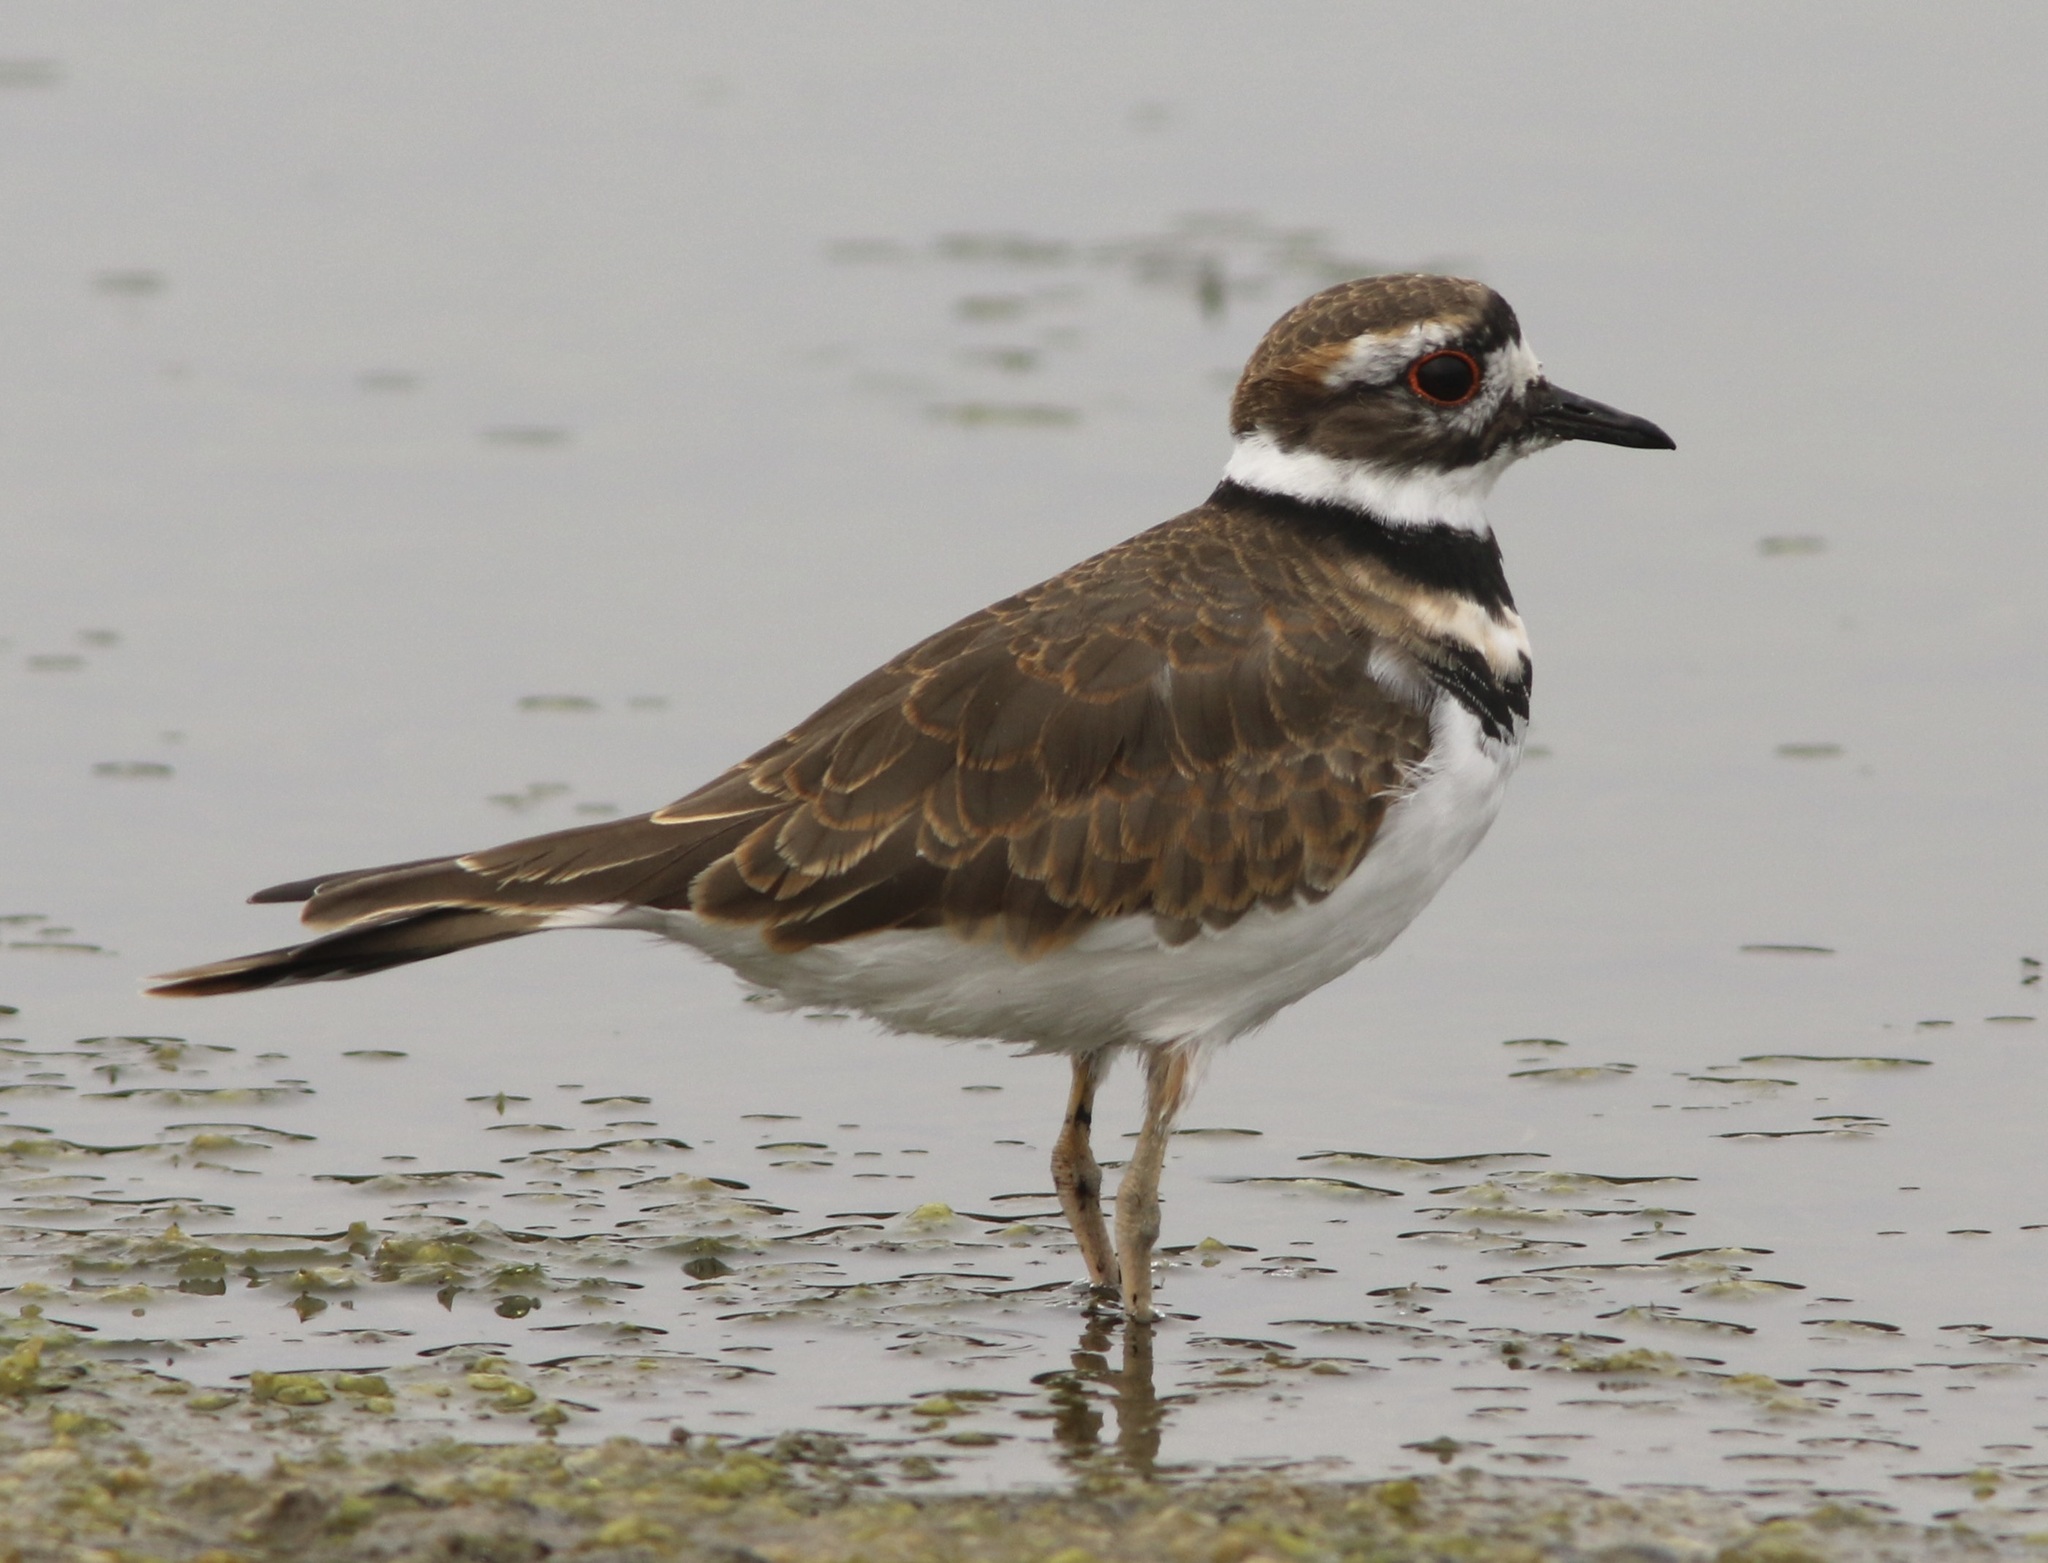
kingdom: Animalia
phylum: Chordata
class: Aves
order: Charadriiformes
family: Charadriidae
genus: Charadrius
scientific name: Charadrius vociferus
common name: Killdeer
